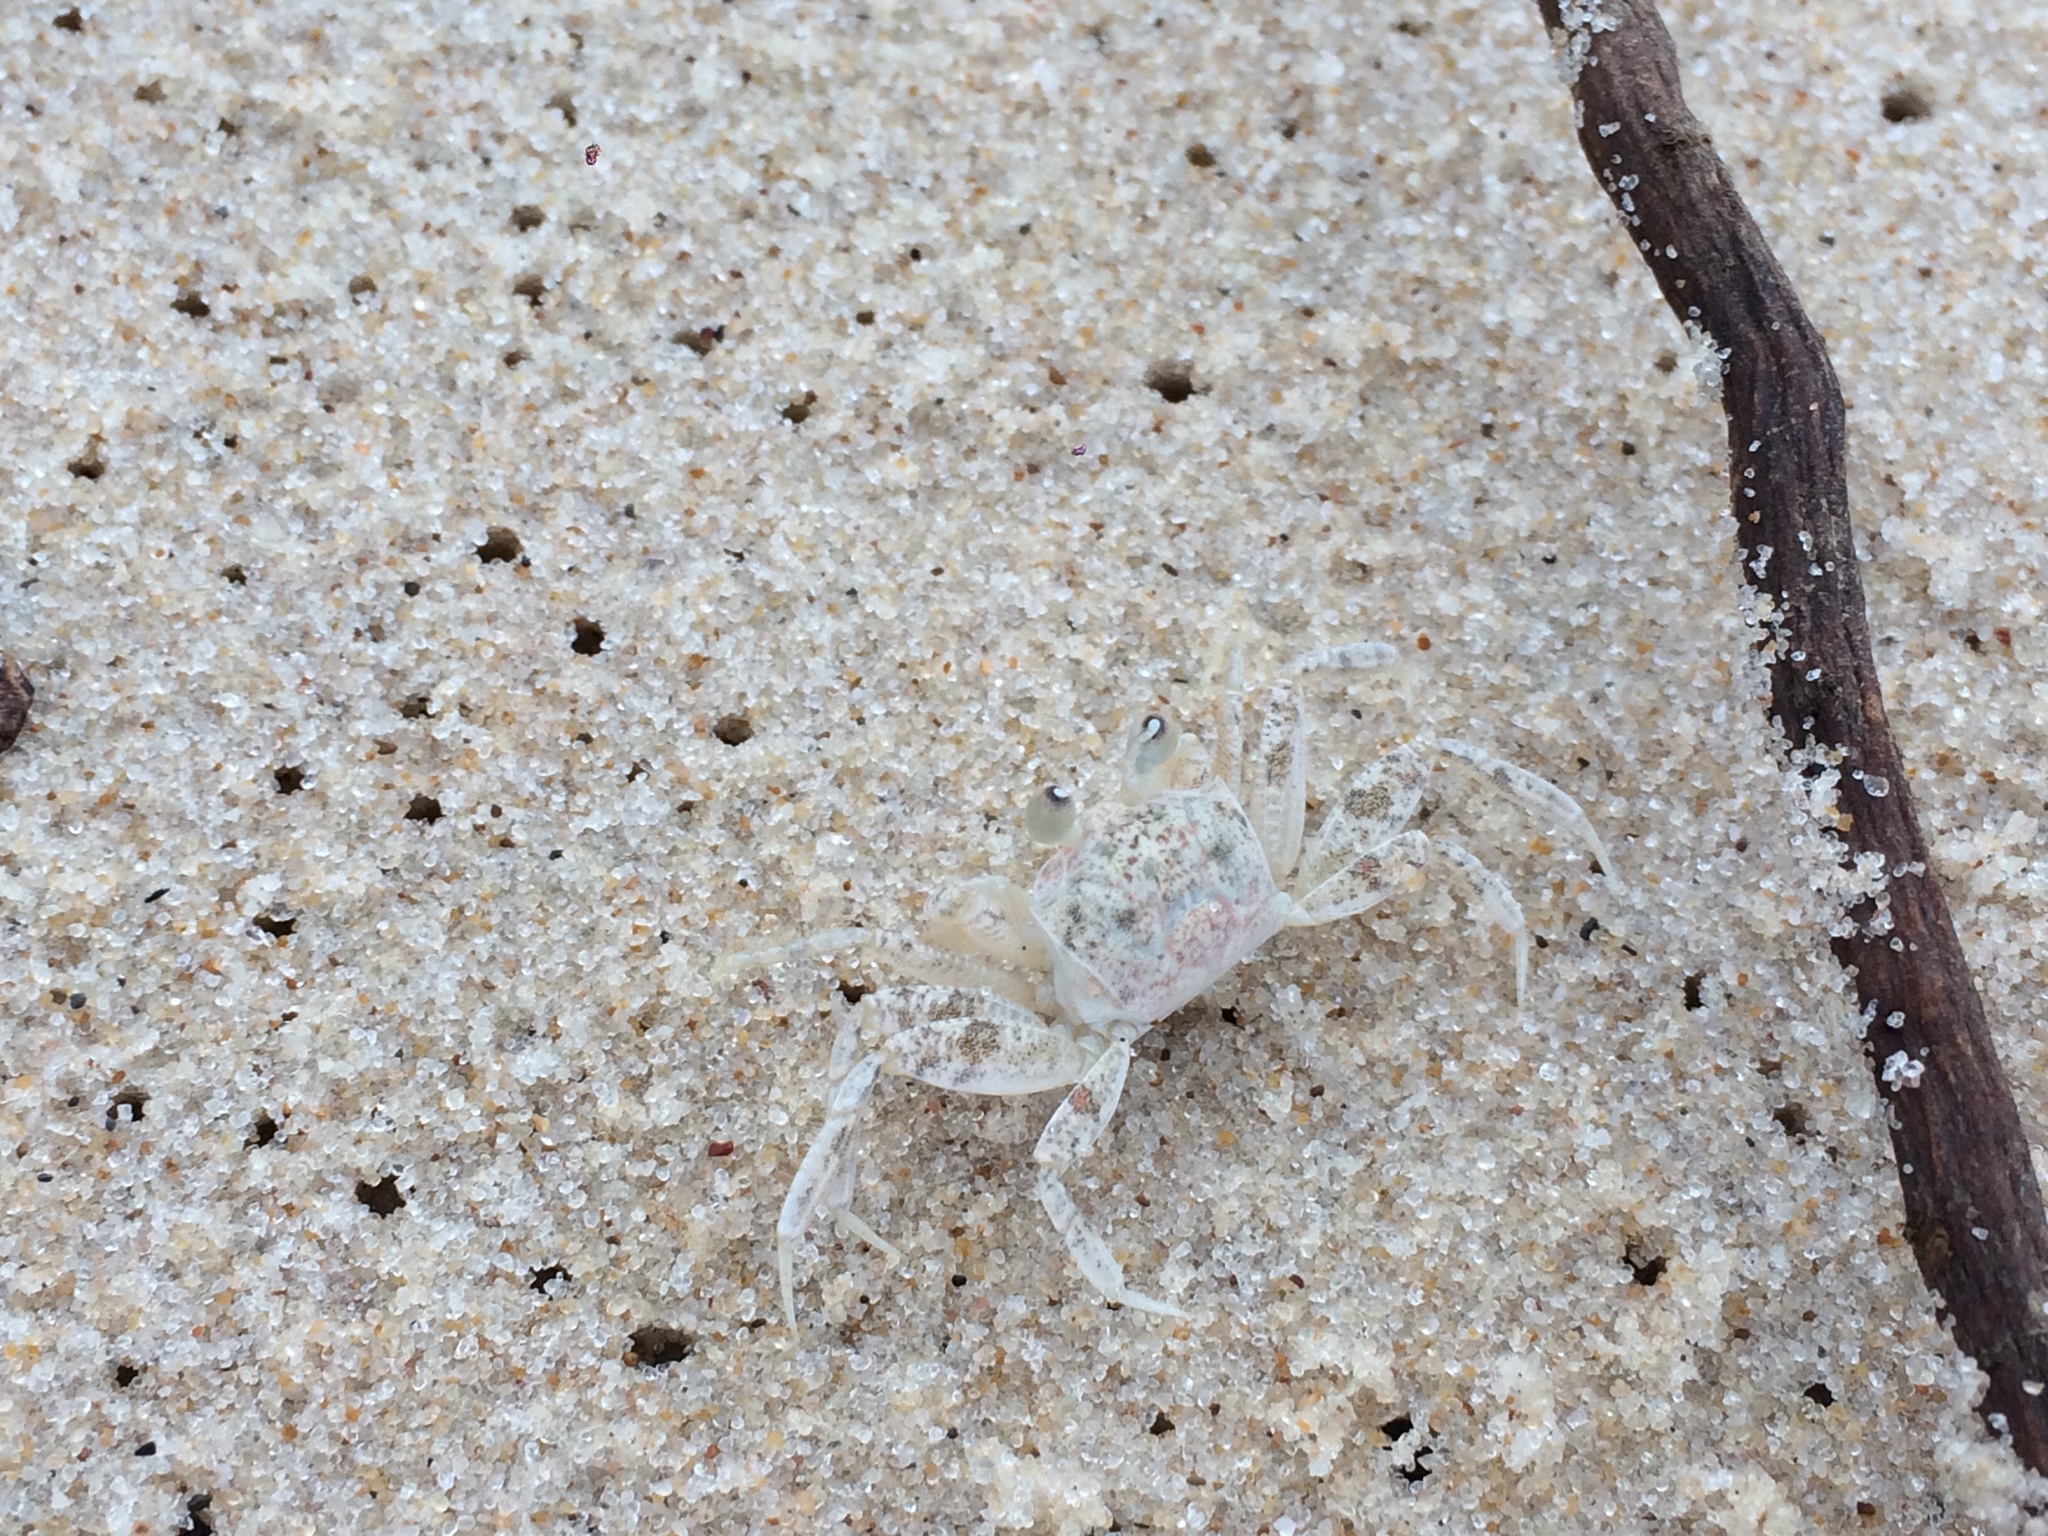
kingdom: Animalia
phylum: Arthropoda
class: Malacostraca
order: Decapoda
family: Ocypodidae
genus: Ocypode
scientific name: Ocypode quadrata
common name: Ghost crab
